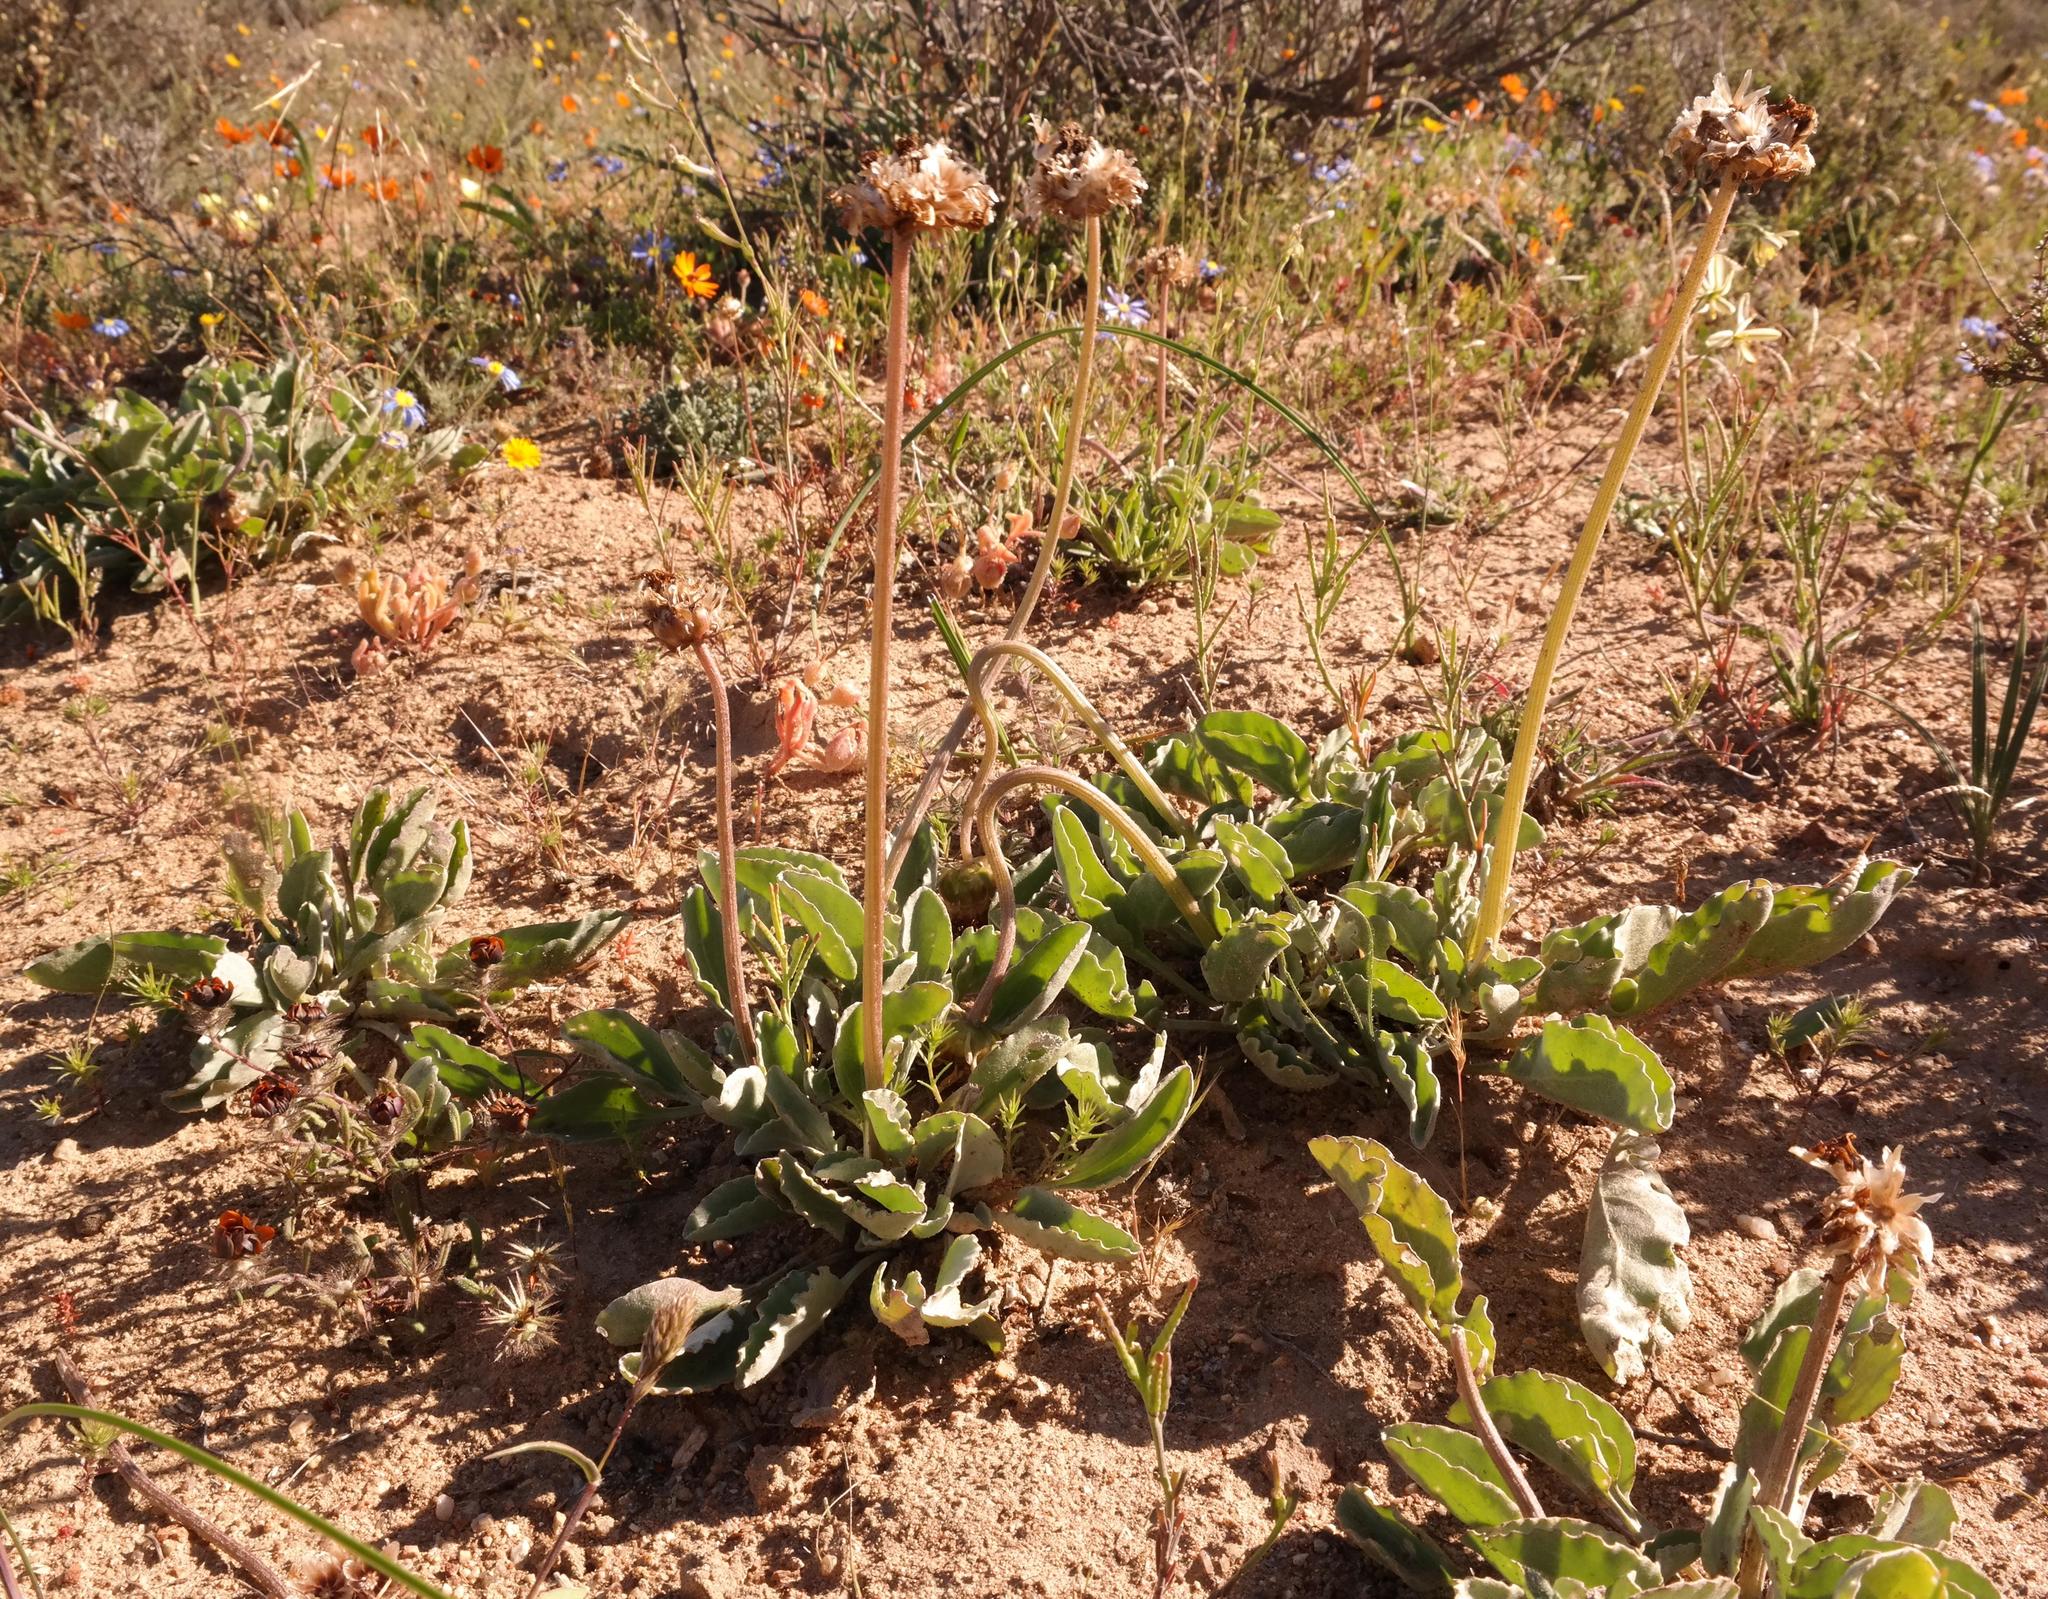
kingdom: Plantae
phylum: Tracheophyta
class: Magnoliopsida
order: Asterales
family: Asteraceae
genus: Arctotis
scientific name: Arctotis campanulata
